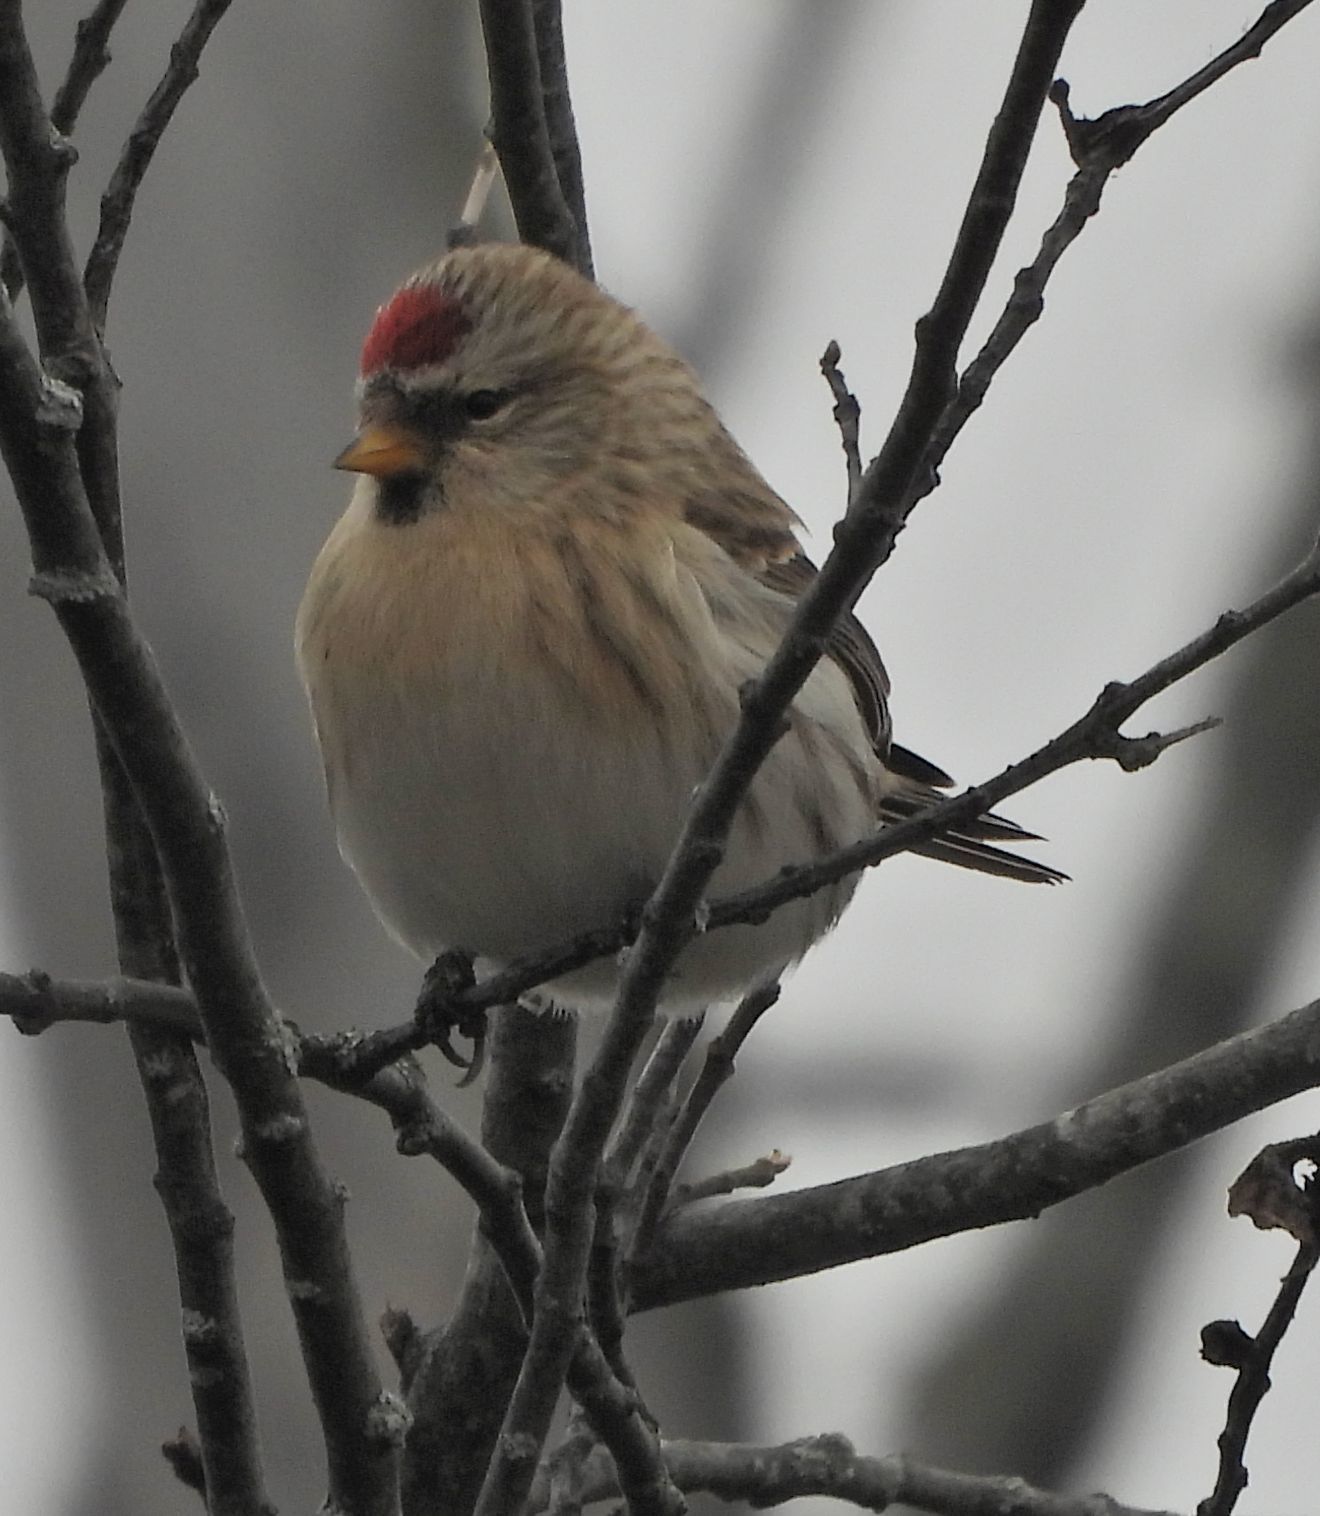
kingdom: Animalia
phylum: Chordata
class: Aves
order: Passeriformes
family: Fringillidae
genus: Acanthis
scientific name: Acanthis flammea
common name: Common redpoll
